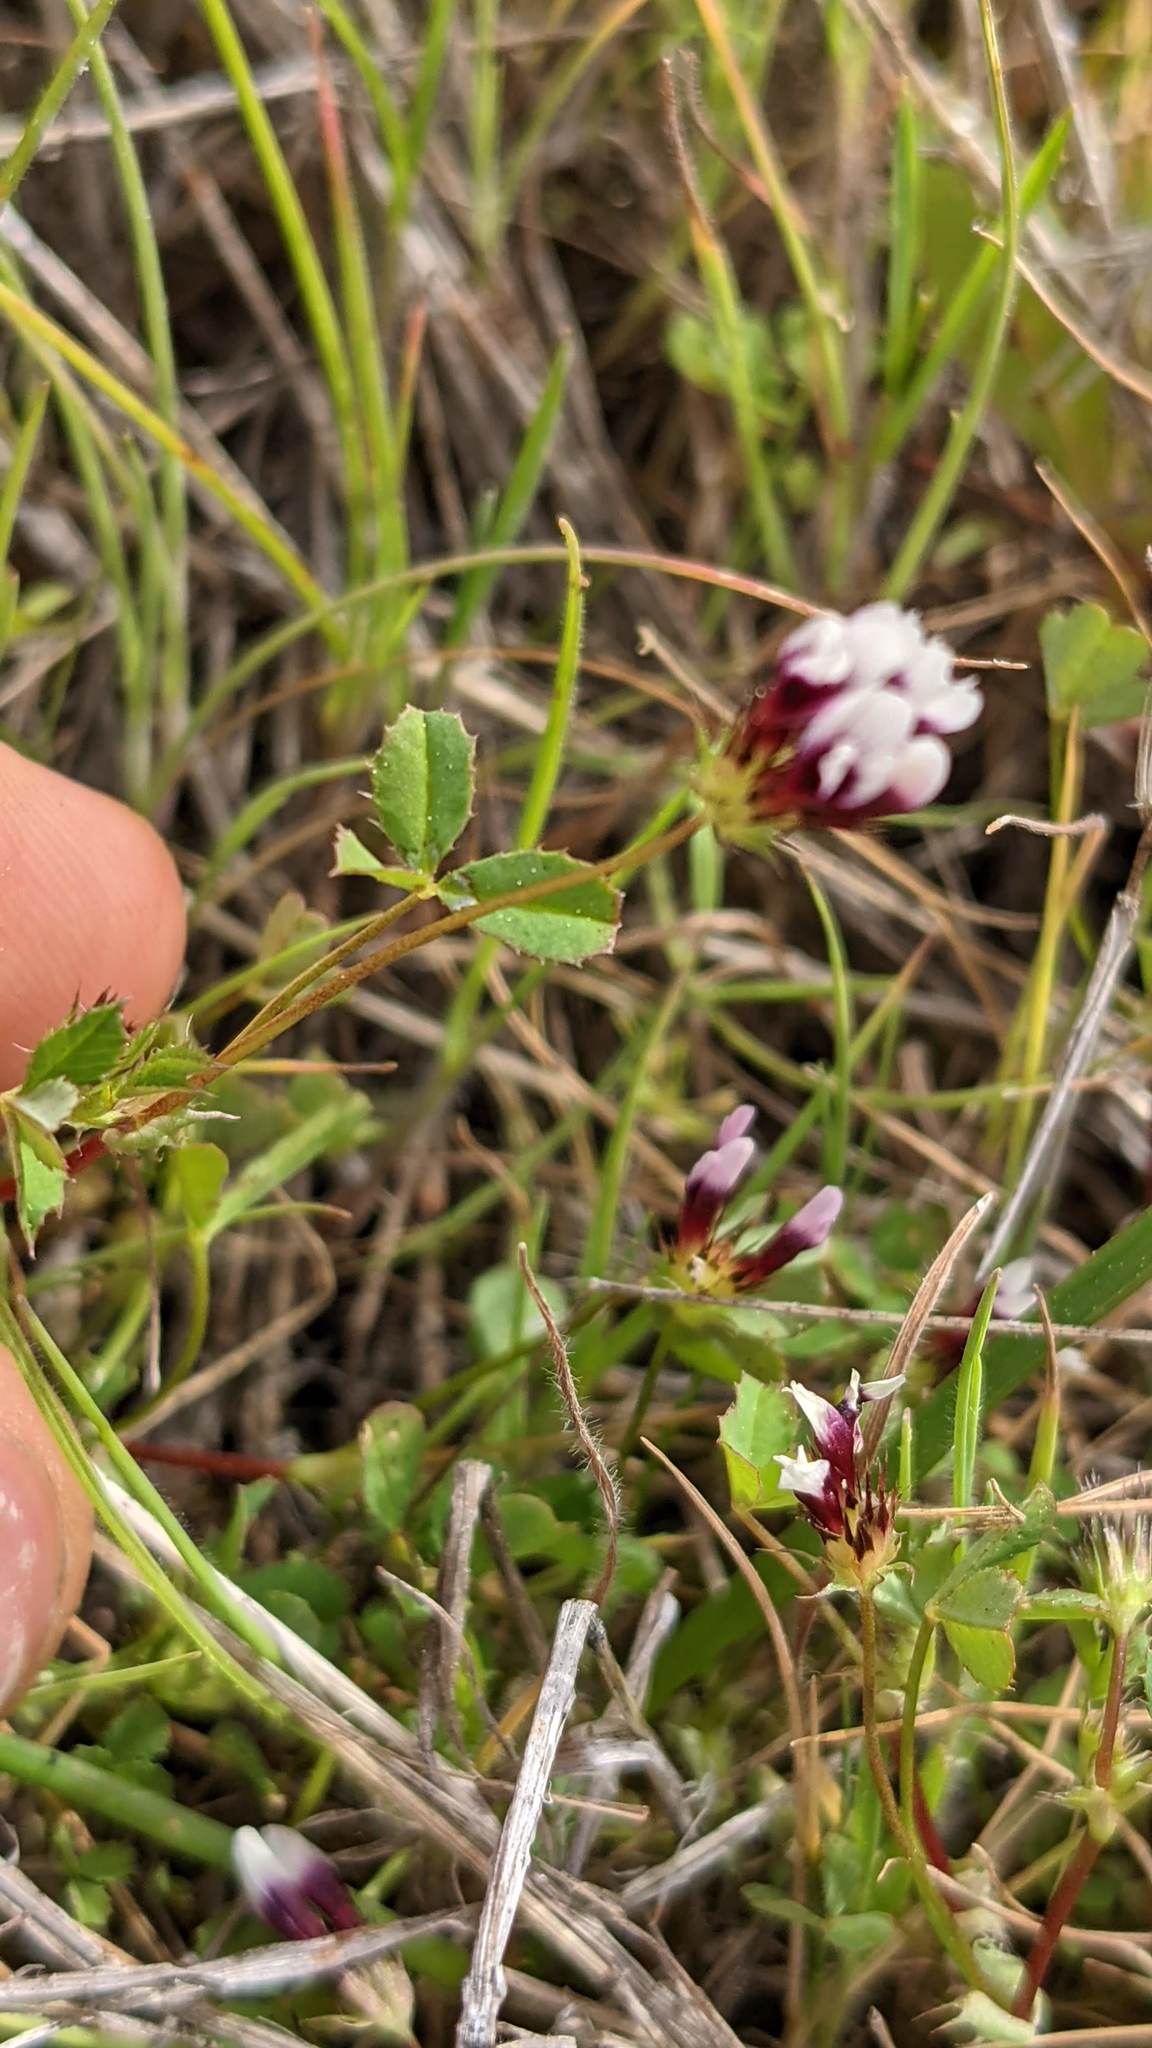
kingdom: Plantae
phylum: Tracheophyta
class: Magnoliopsida
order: Fabales
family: Fabaceae
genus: Trifolium
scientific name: Trifolium variegatum
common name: Whitetip clover
